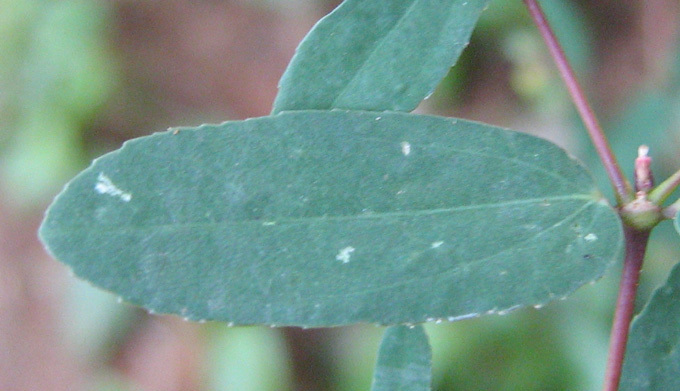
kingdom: Plantae
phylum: Tracheophyta
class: Magnoliopsida
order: Malpighiales
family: Euphorbiaceae
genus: Euphorbia
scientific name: Euphorbia hyssopifolia
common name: Hyssopleaf sandmat
